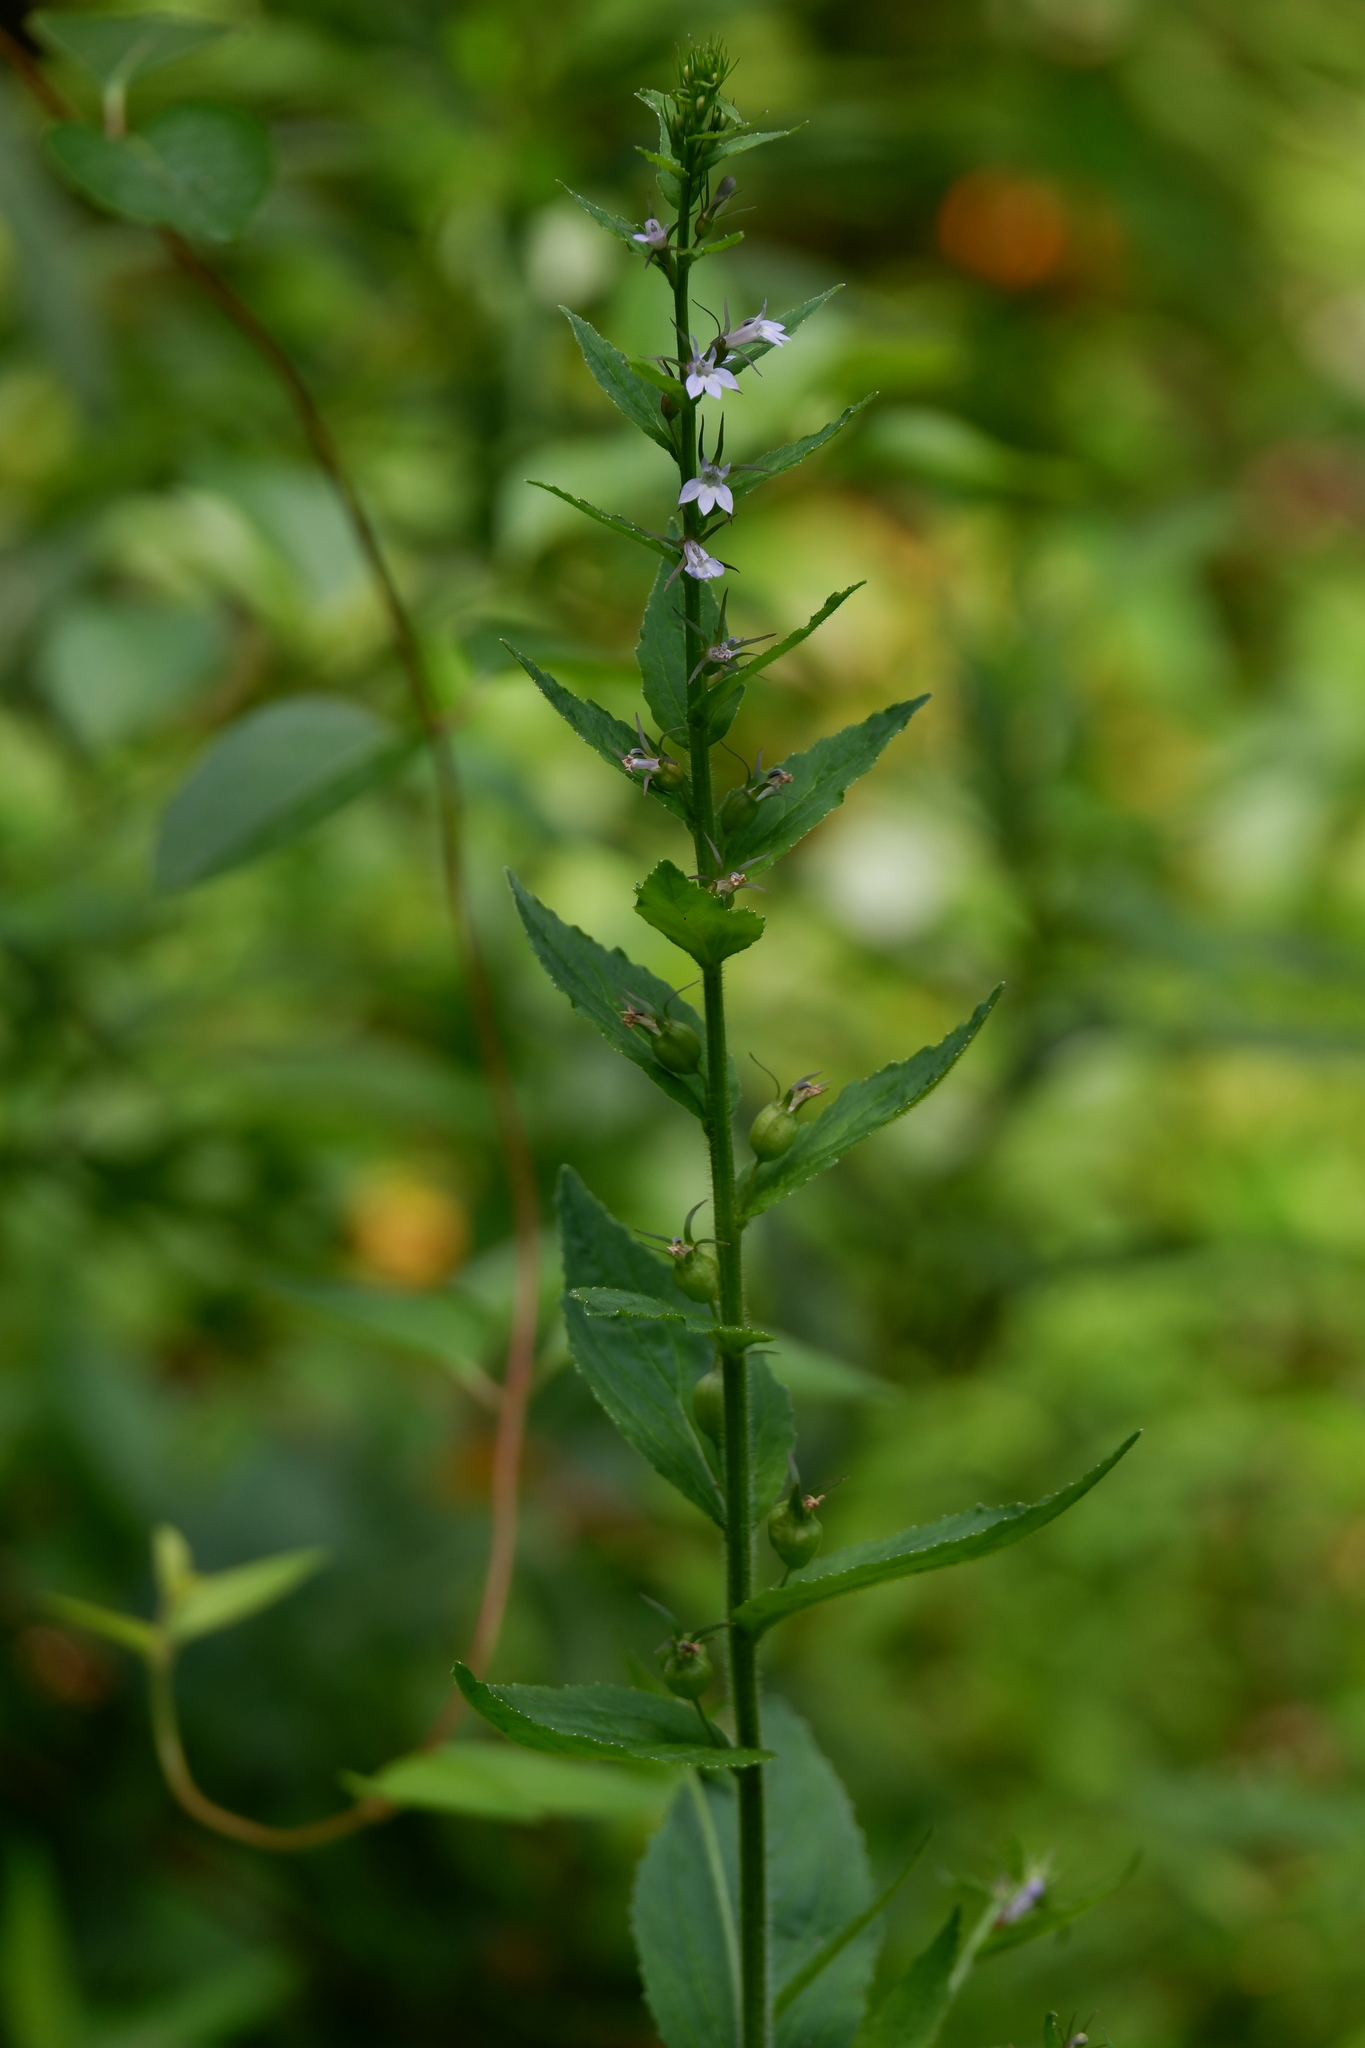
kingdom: Plantae
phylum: Tracheophyta
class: Magnoliopsida
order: Asterales
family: Campanulaceae
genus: Lobelia
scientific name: Lobelia inflata
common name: Indian tobacco
